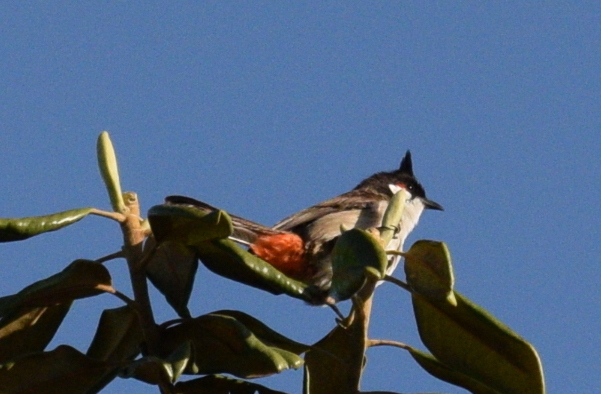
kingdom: Animalia
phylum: Chordata
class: Aves
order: Passeriformes
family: Pycnonotidae
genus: Pycnonotus
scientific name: Pycnonotus jocosus
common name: Red-whiskered bulbul
